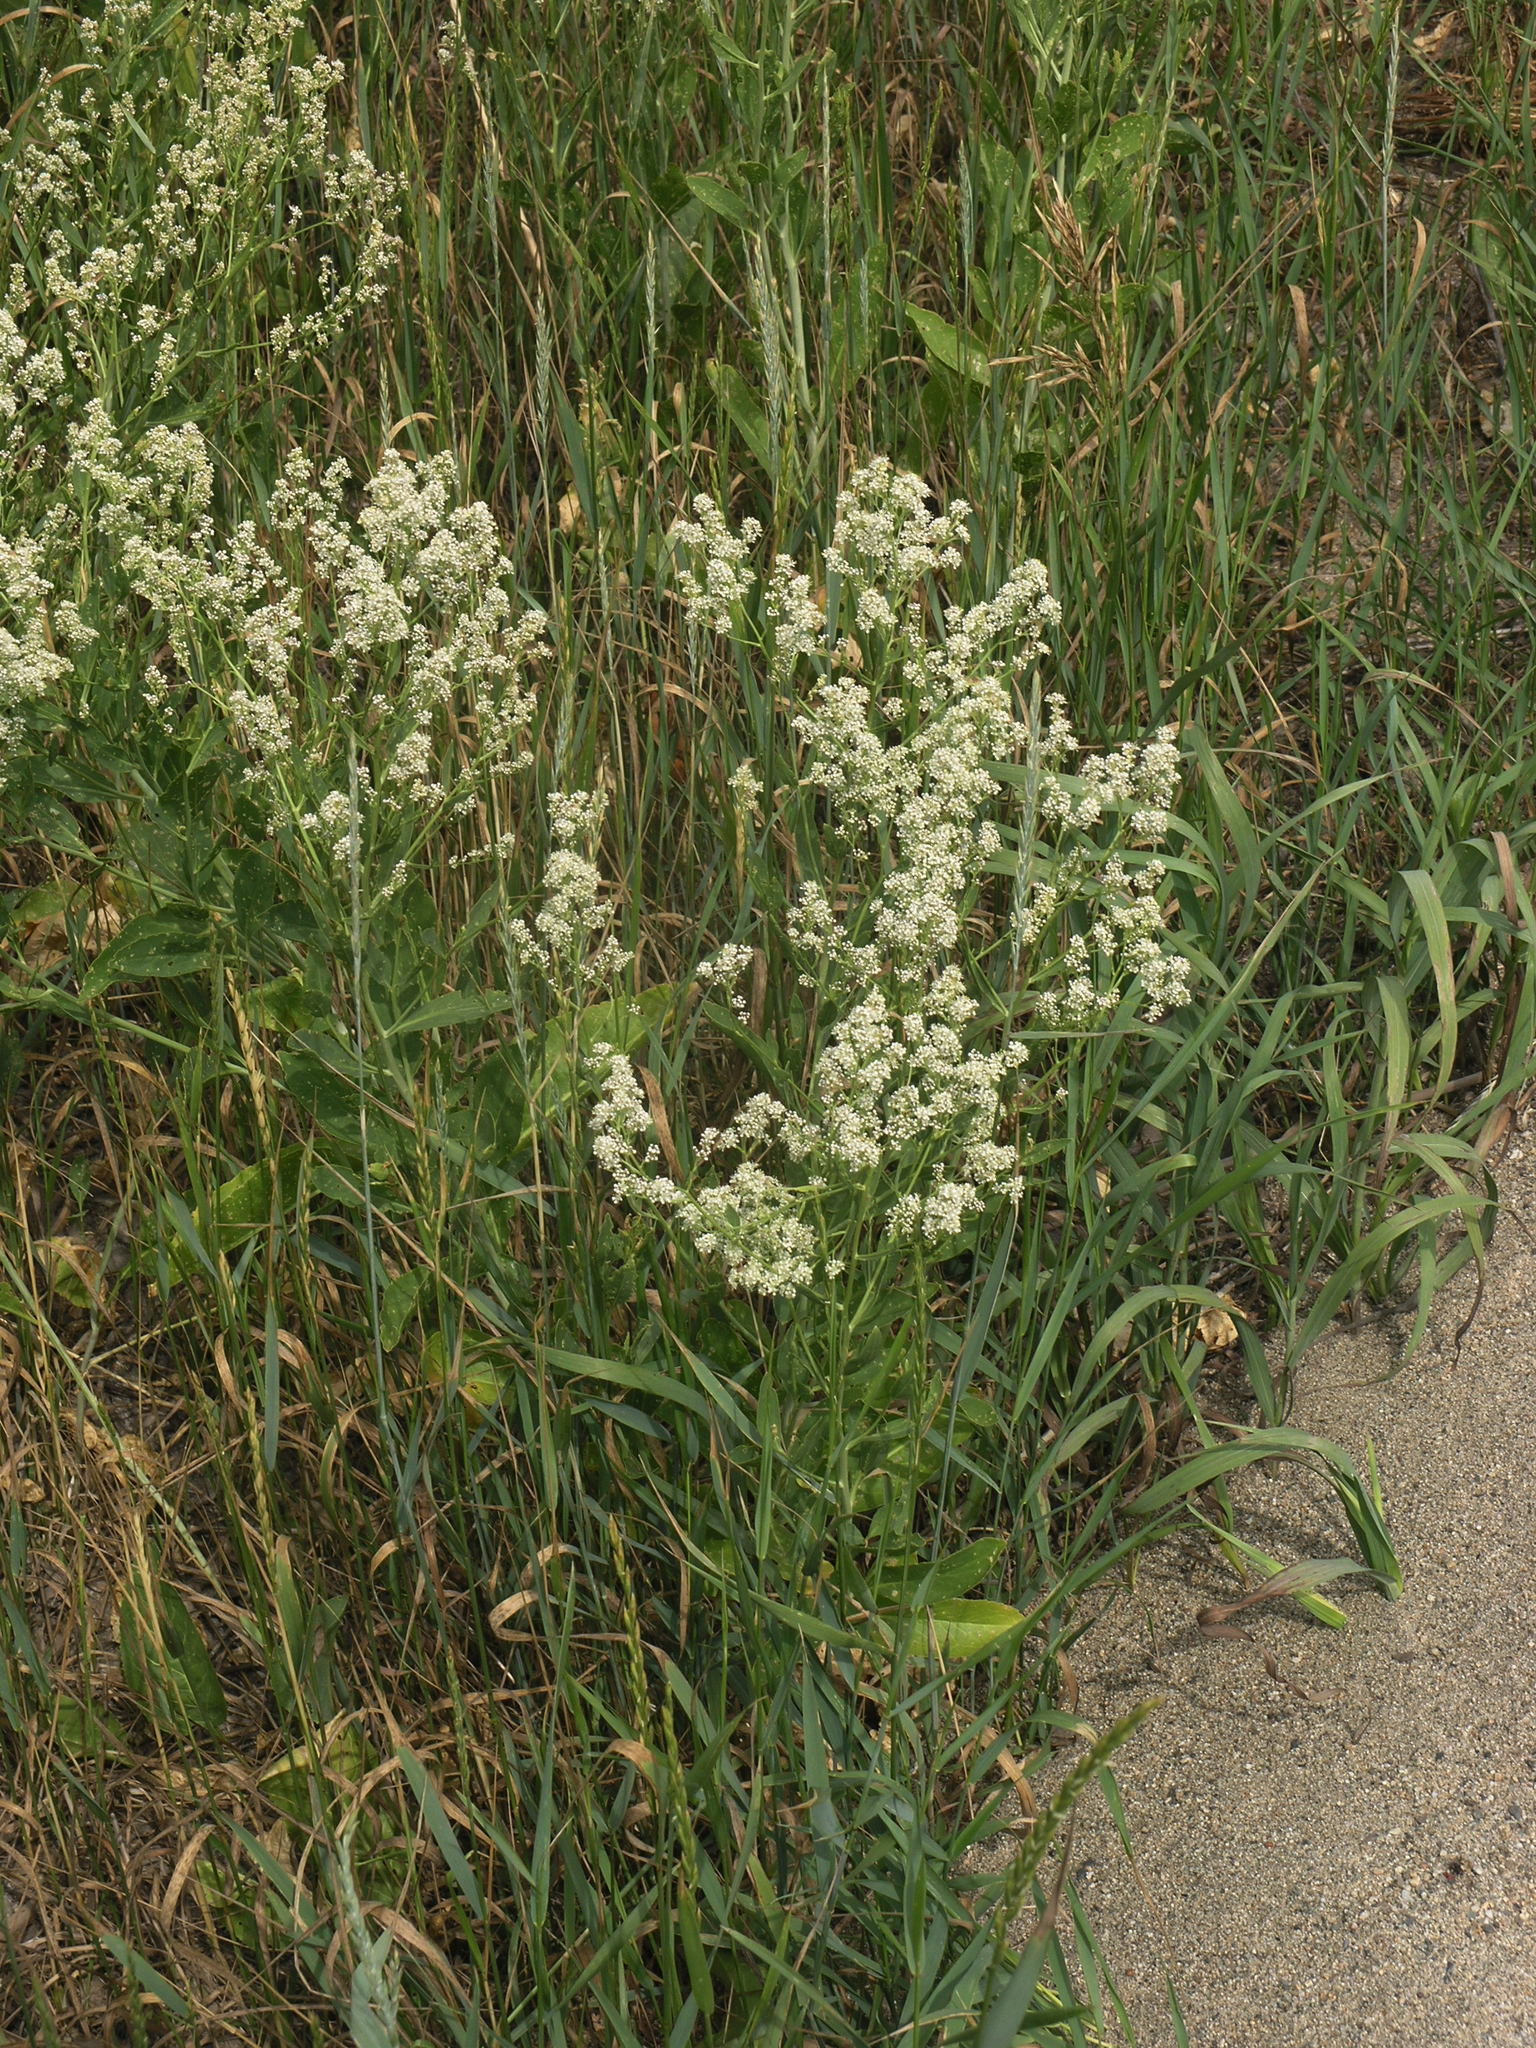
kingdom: Plantae
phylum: Tracheophyta
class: Magnoliopsida
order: Brassicales
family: Brassicaceae
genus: Lepidium
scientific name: Lepidium latifolium
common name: Dittander
